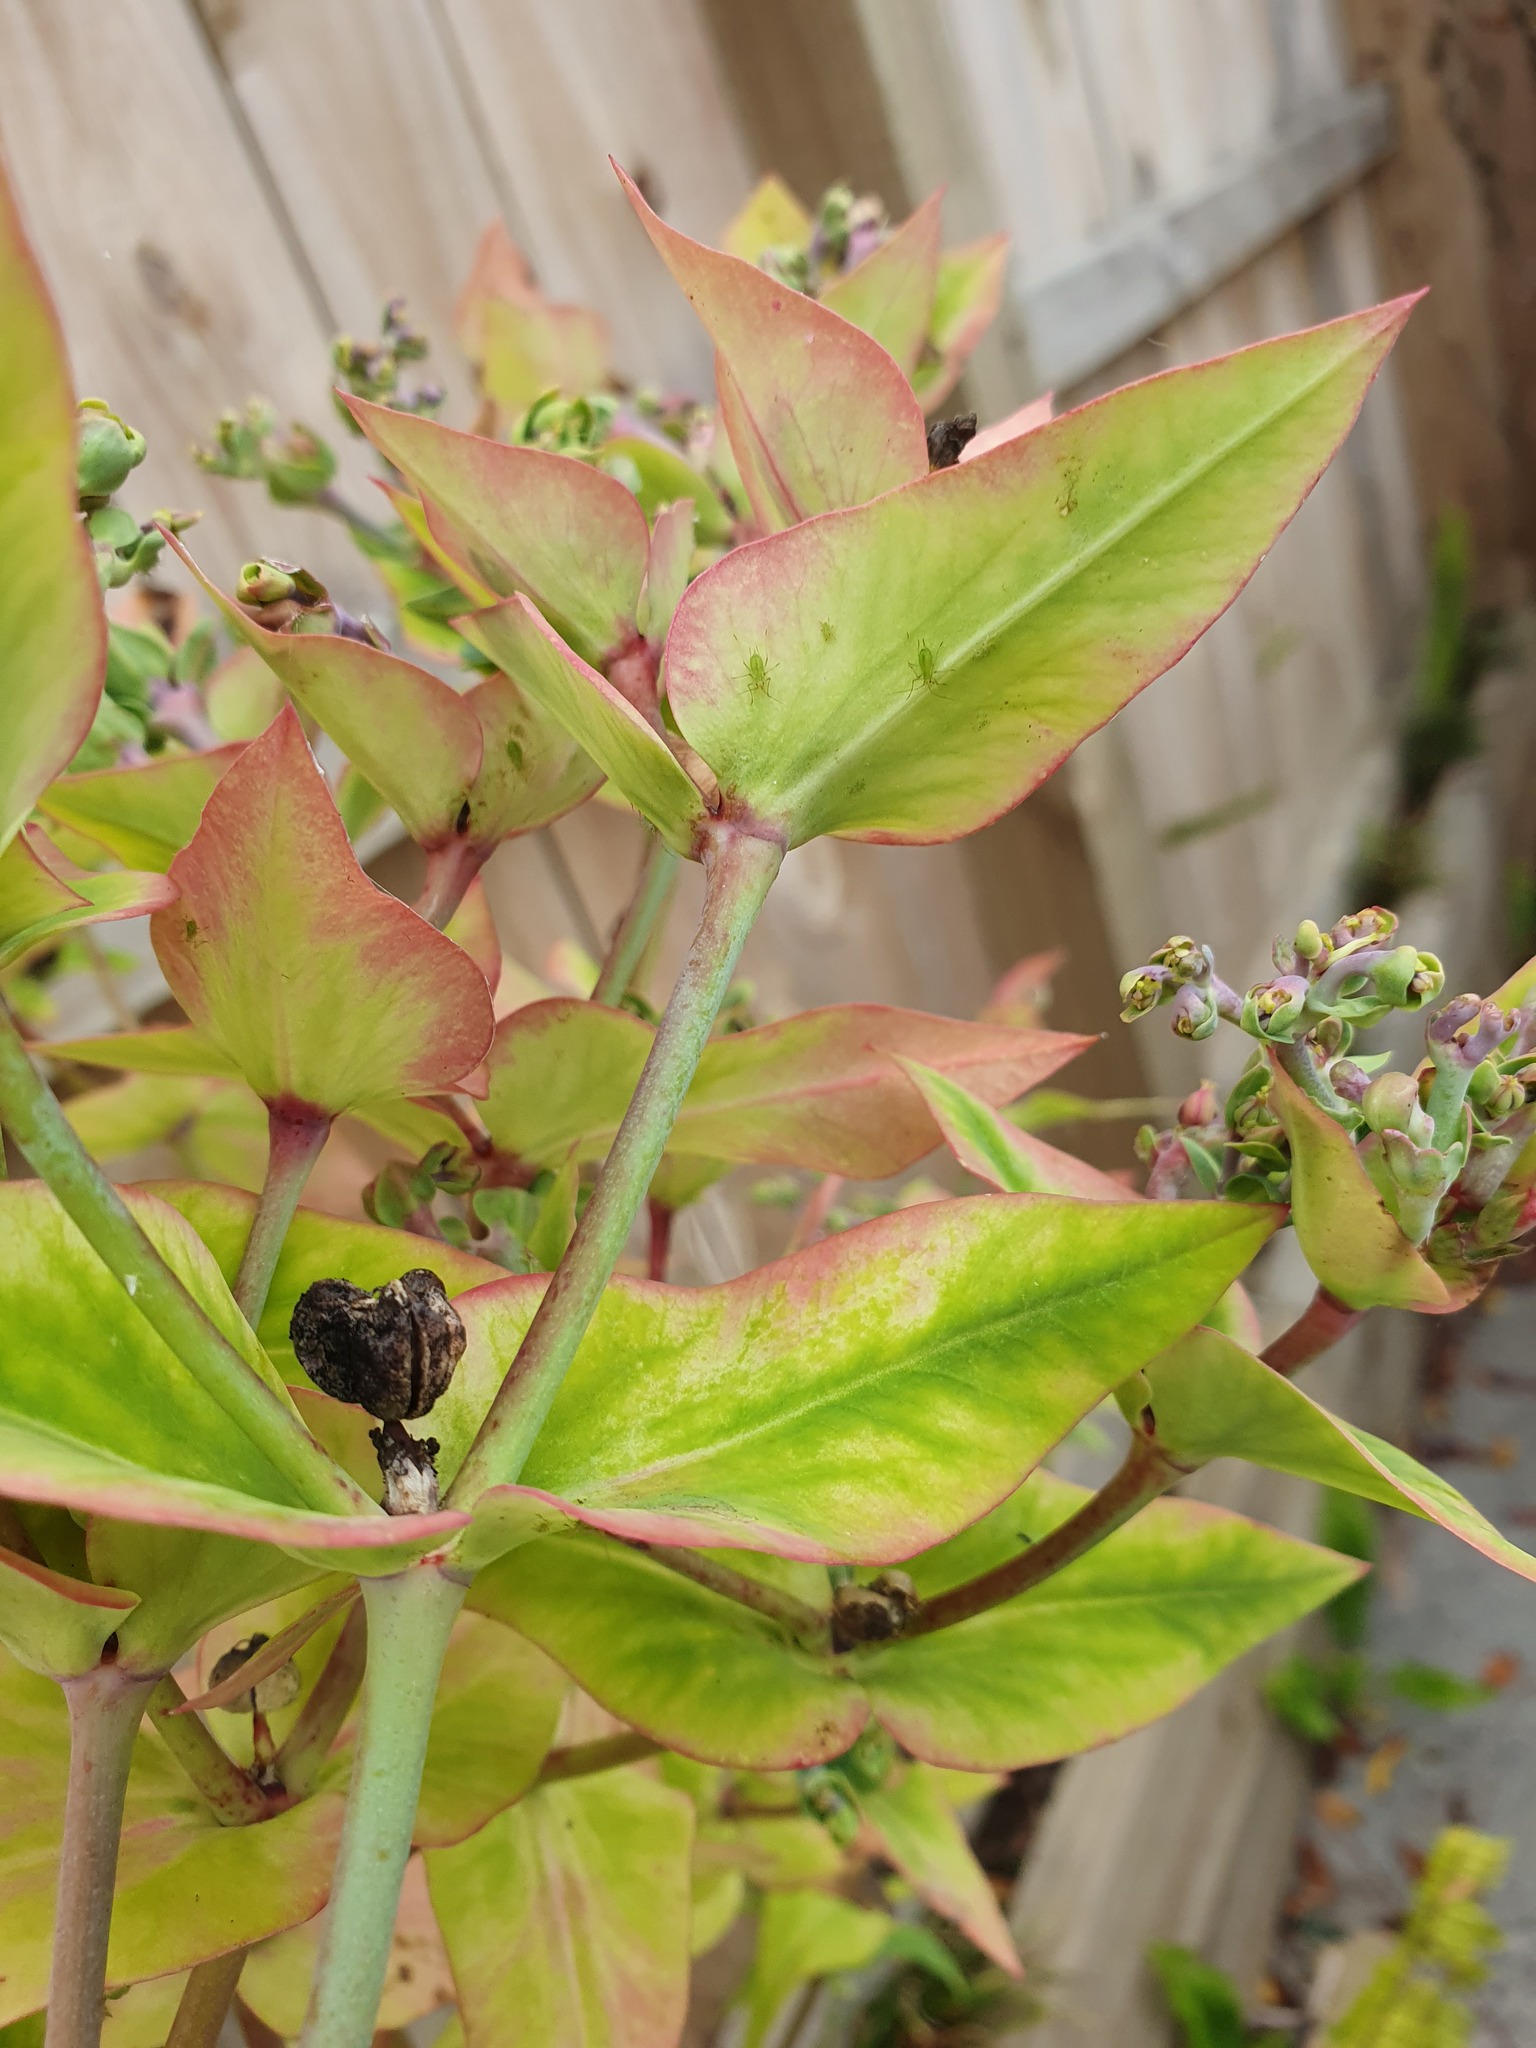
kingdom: Plantae
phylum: Tracheophyta
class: Magnoliopsida
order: Malpighiales
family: Euphorbiaceae
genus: Euphorbia
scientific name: Euphorbia lathyris
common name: Caper spurge
